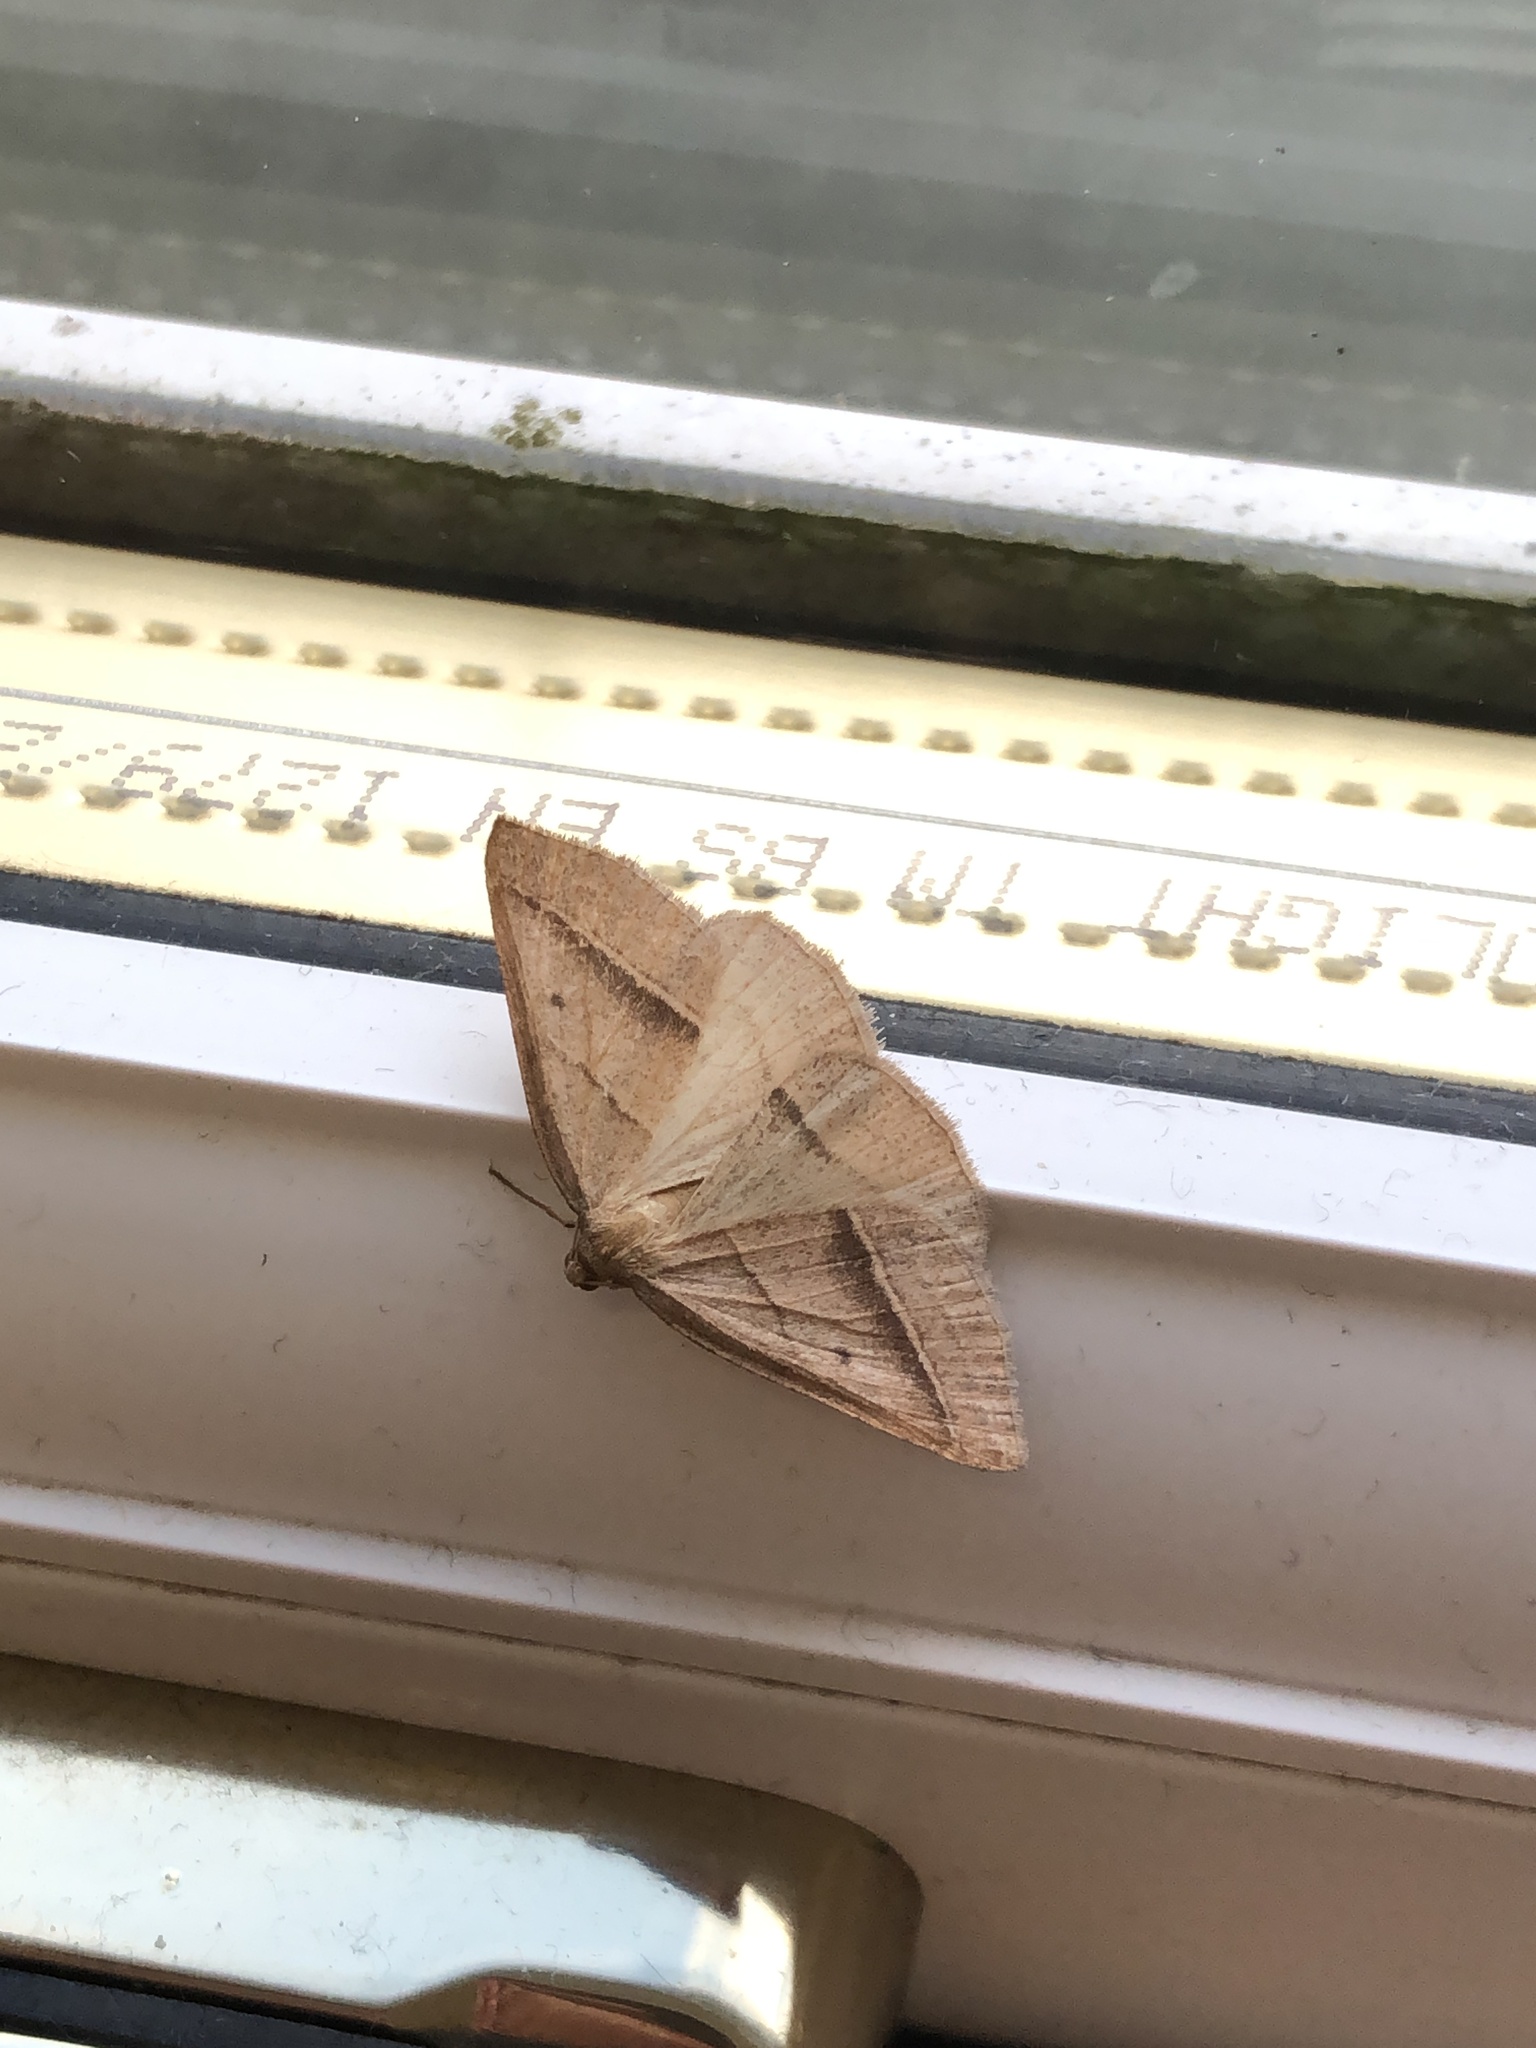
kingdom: Animalia
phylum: Arthropoda
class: Insecta
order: Lepidoptera
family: Pterophoridae
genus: Pterophorus
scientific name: Pterophorus Petrophora chlorosata
